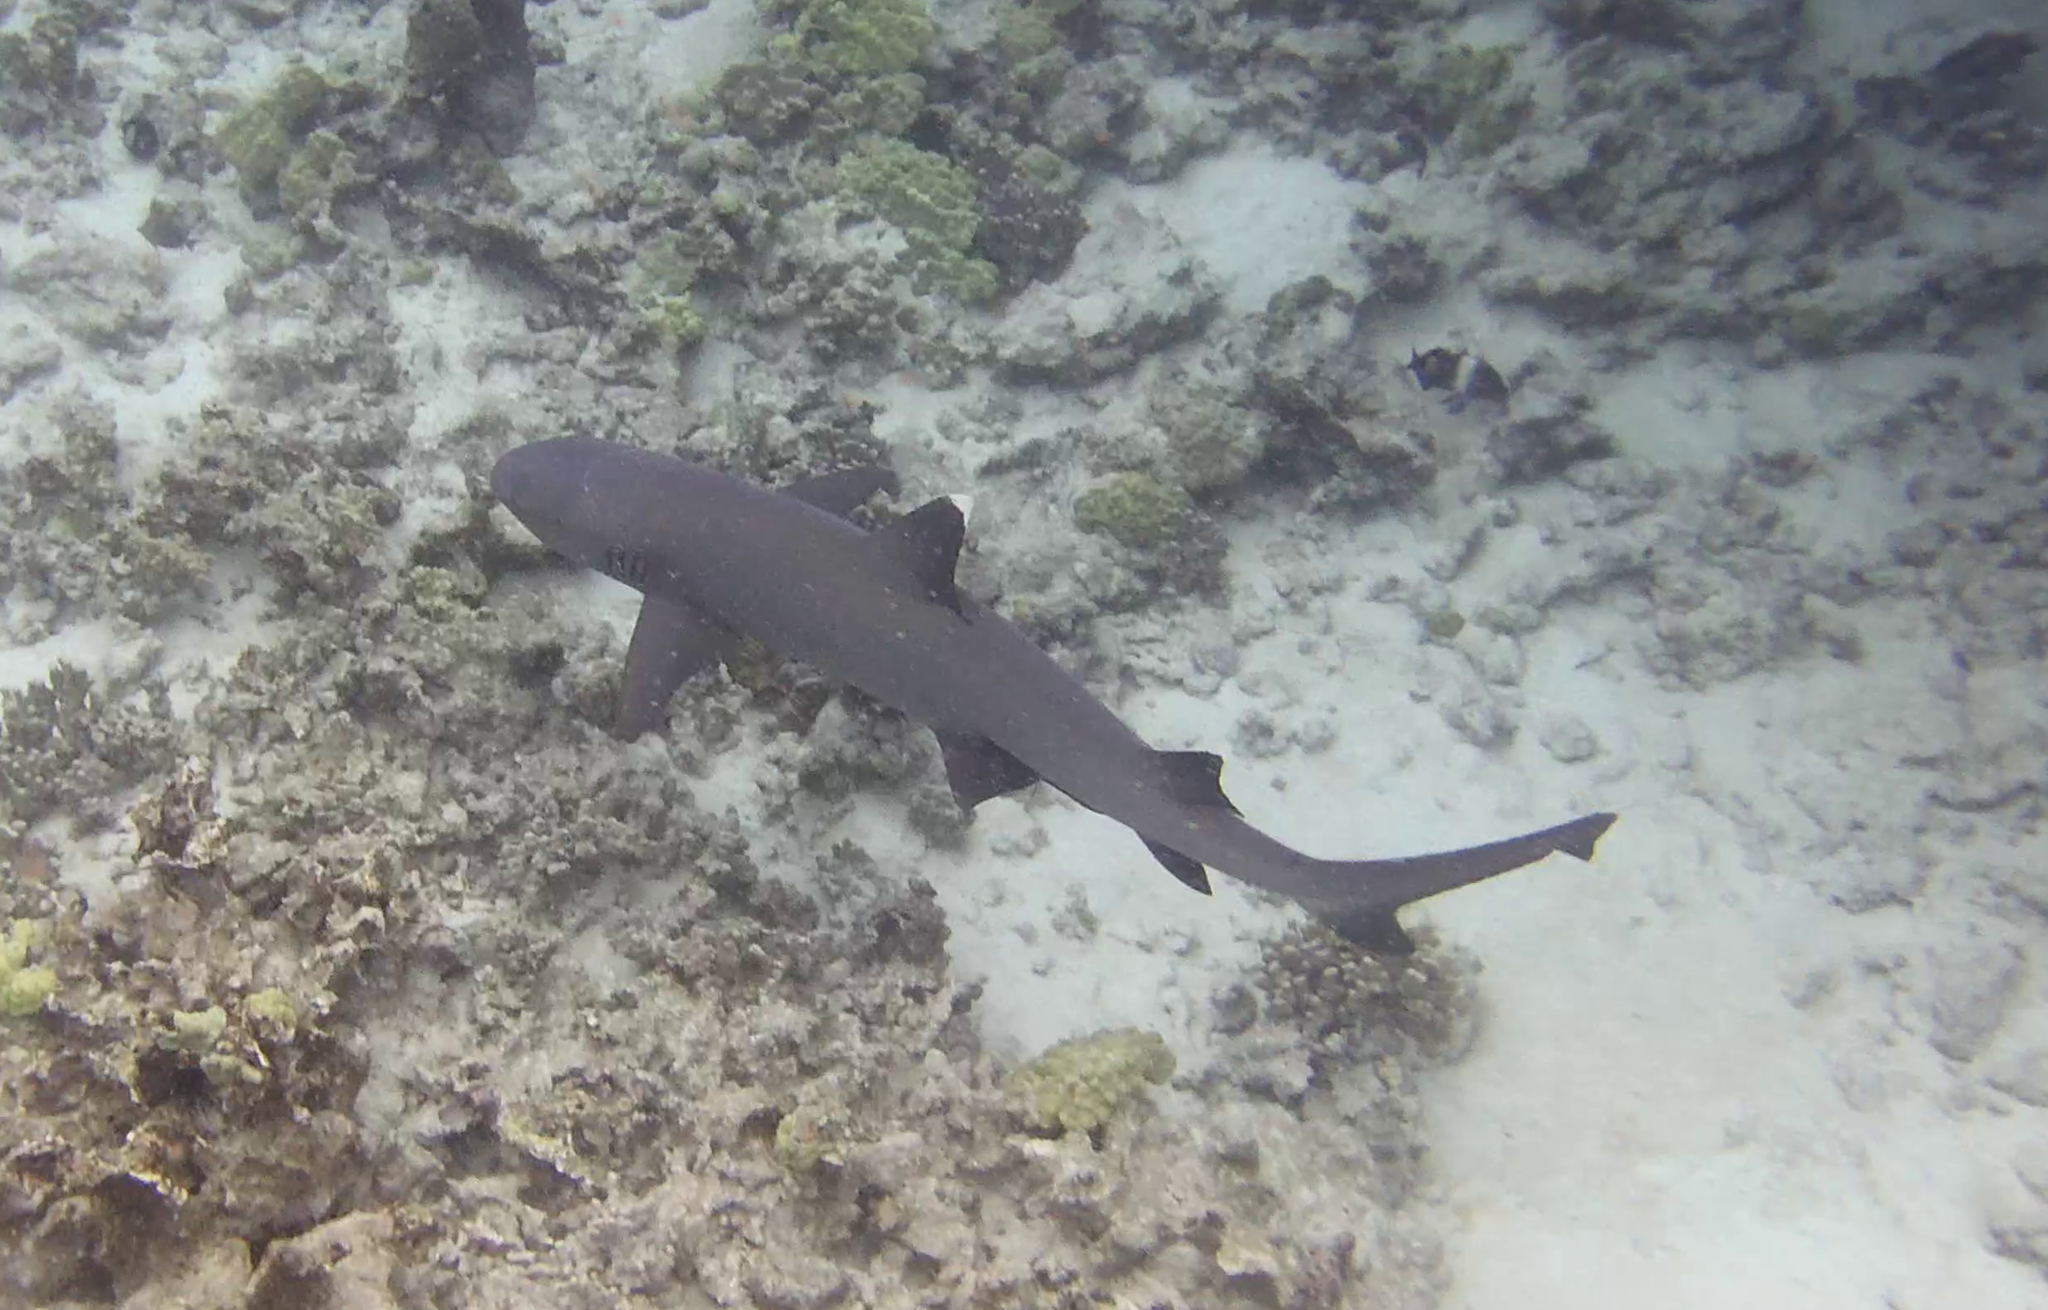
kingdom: Animalia
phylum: Chordata
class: Elasmobranchii
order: Carcharhiniformes
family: Carcharhinidae
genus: Triaenodon
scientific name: Triaenodon obesus
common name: Whitetip reef shark
